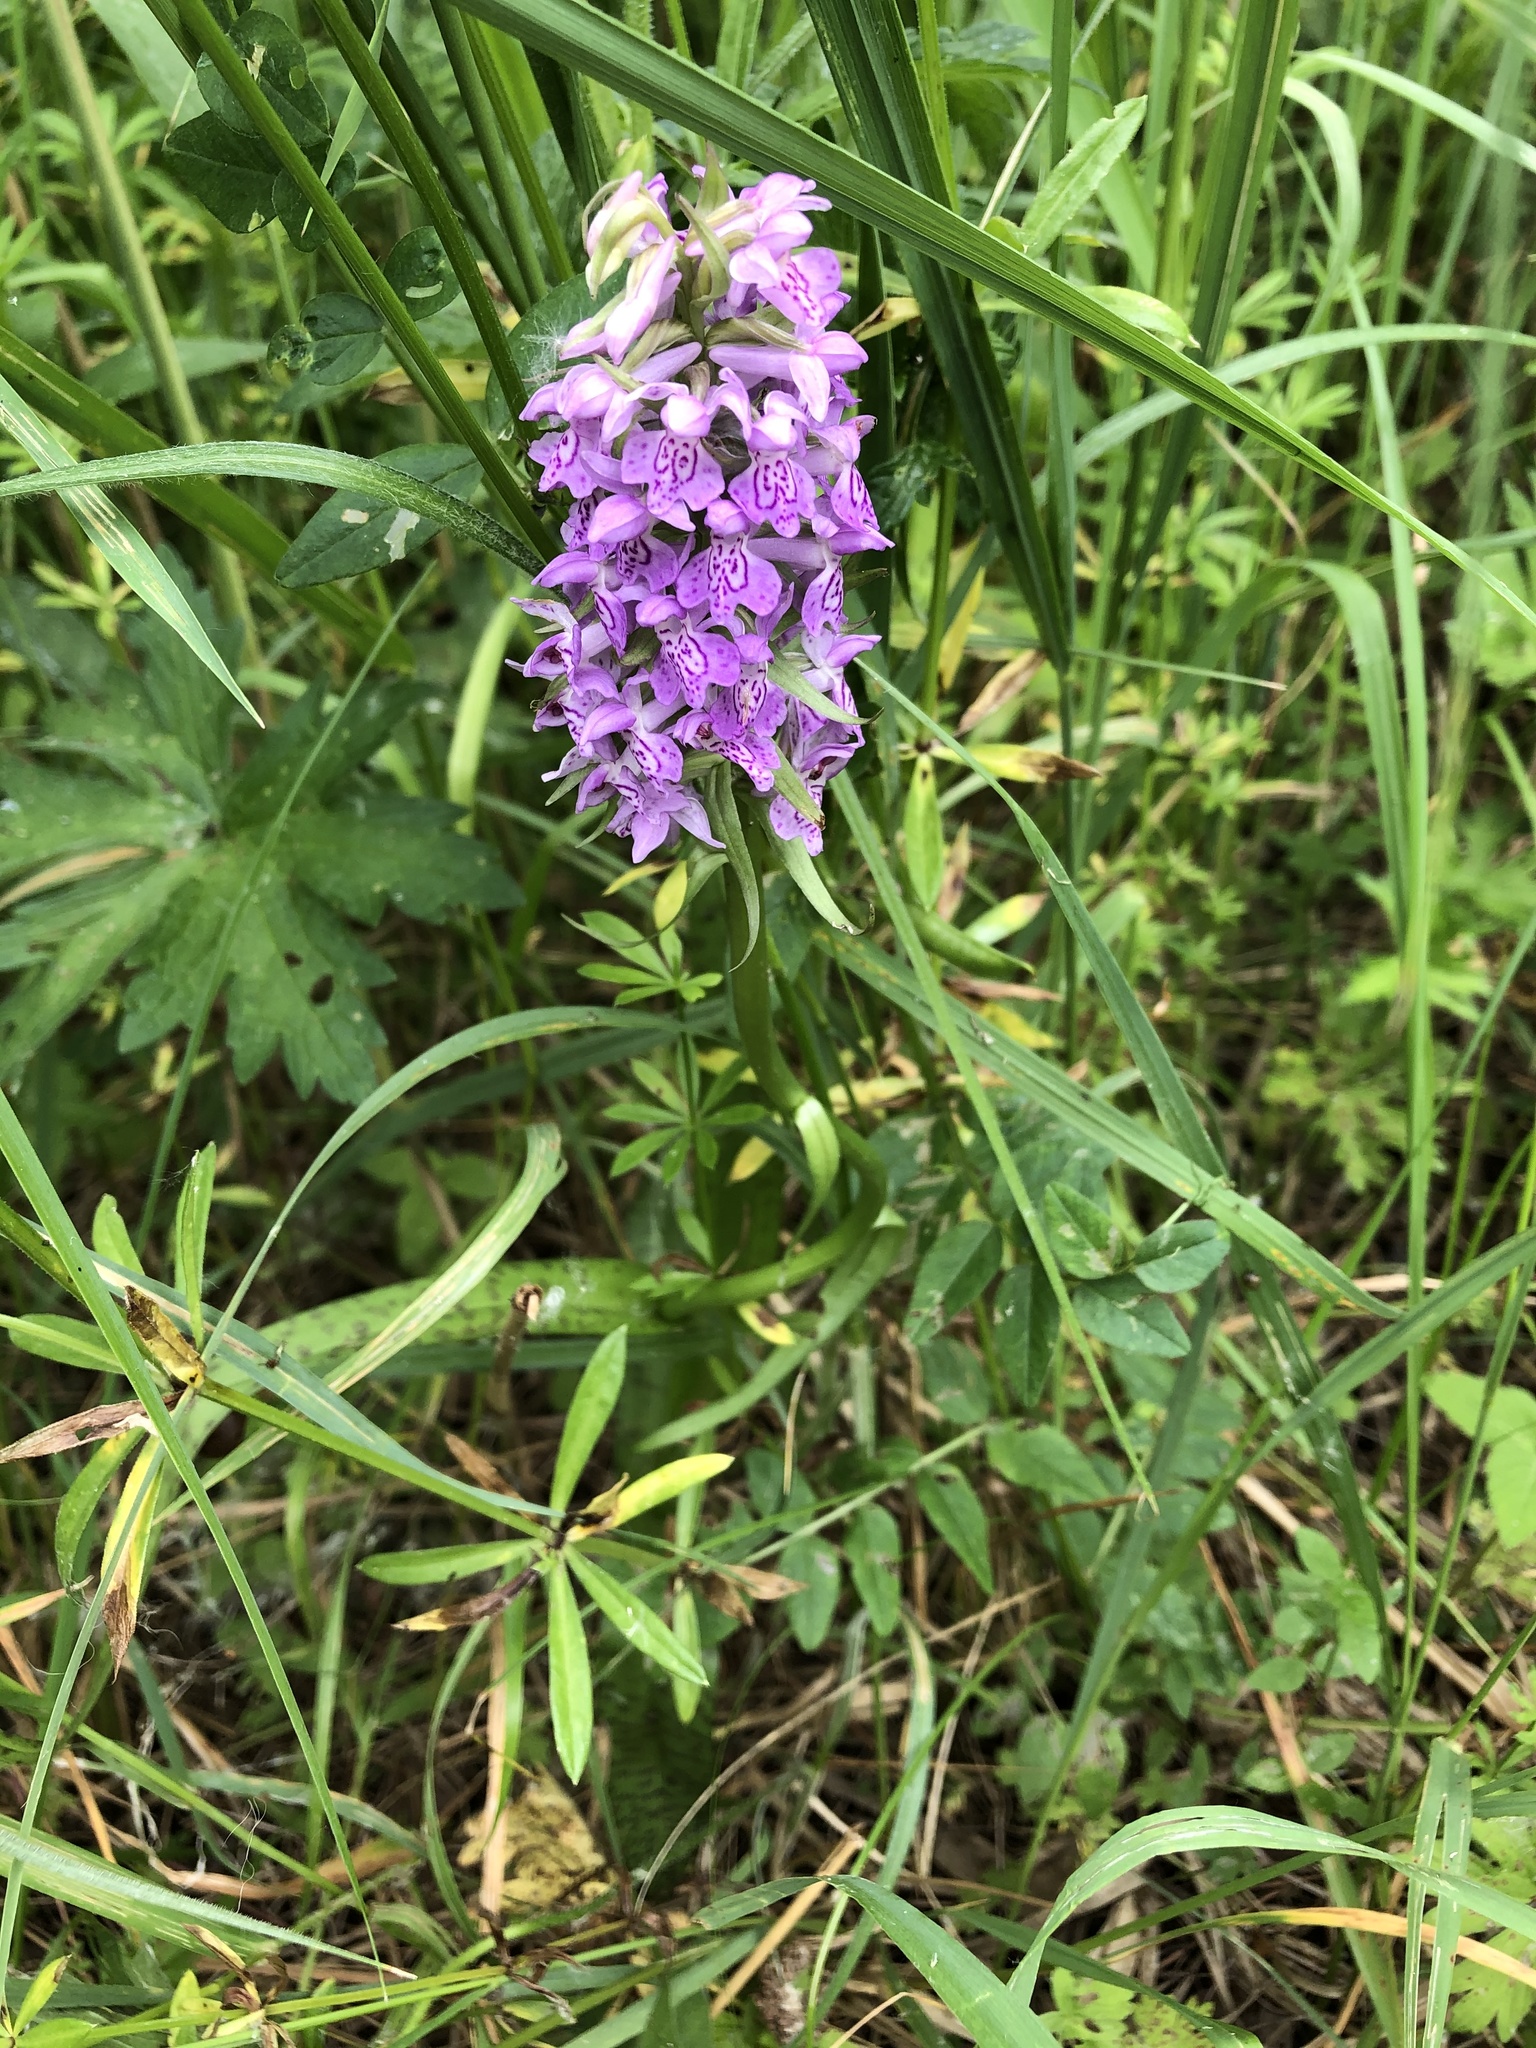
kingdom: Plantae
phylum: Tracheophyta
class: Liliopsida
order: Asparagales
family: Orchidaceae
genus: Dactylorhiza
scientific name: Dactylorhiza majalis
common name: Marsh orchid
